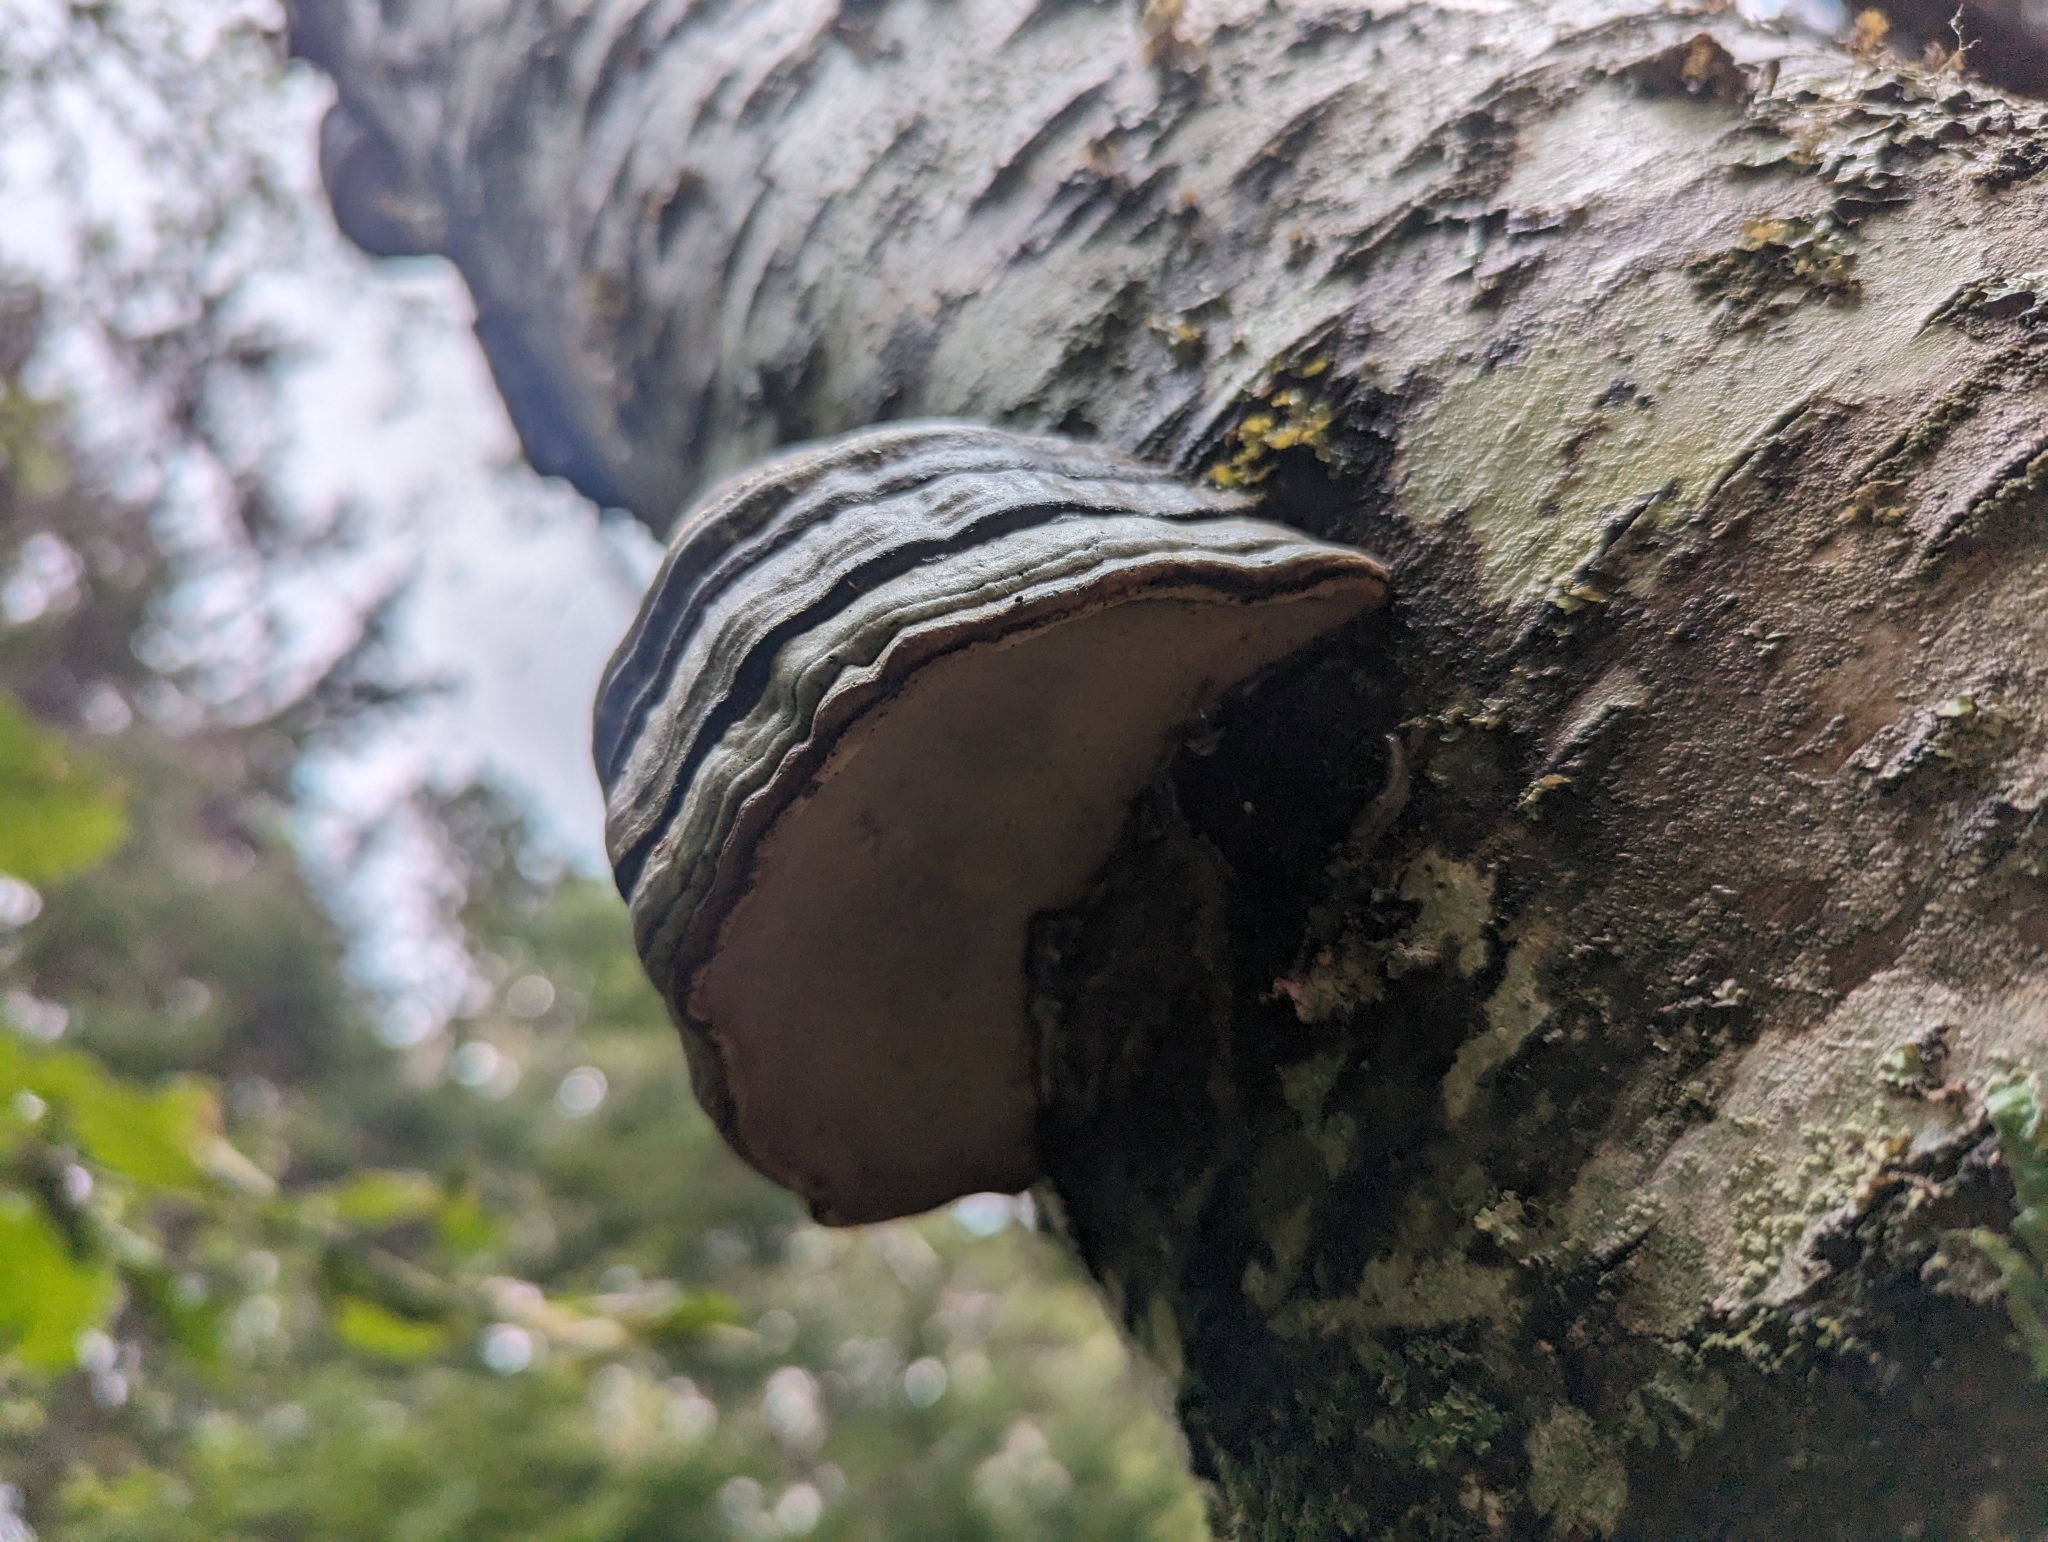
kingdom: Fungi
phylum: Basidiomycota
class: Agaricomycetes
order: Polyporales
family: Polyporaceae
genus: Fomes
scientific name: Fomes fomentarius
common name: Hoof fungus
